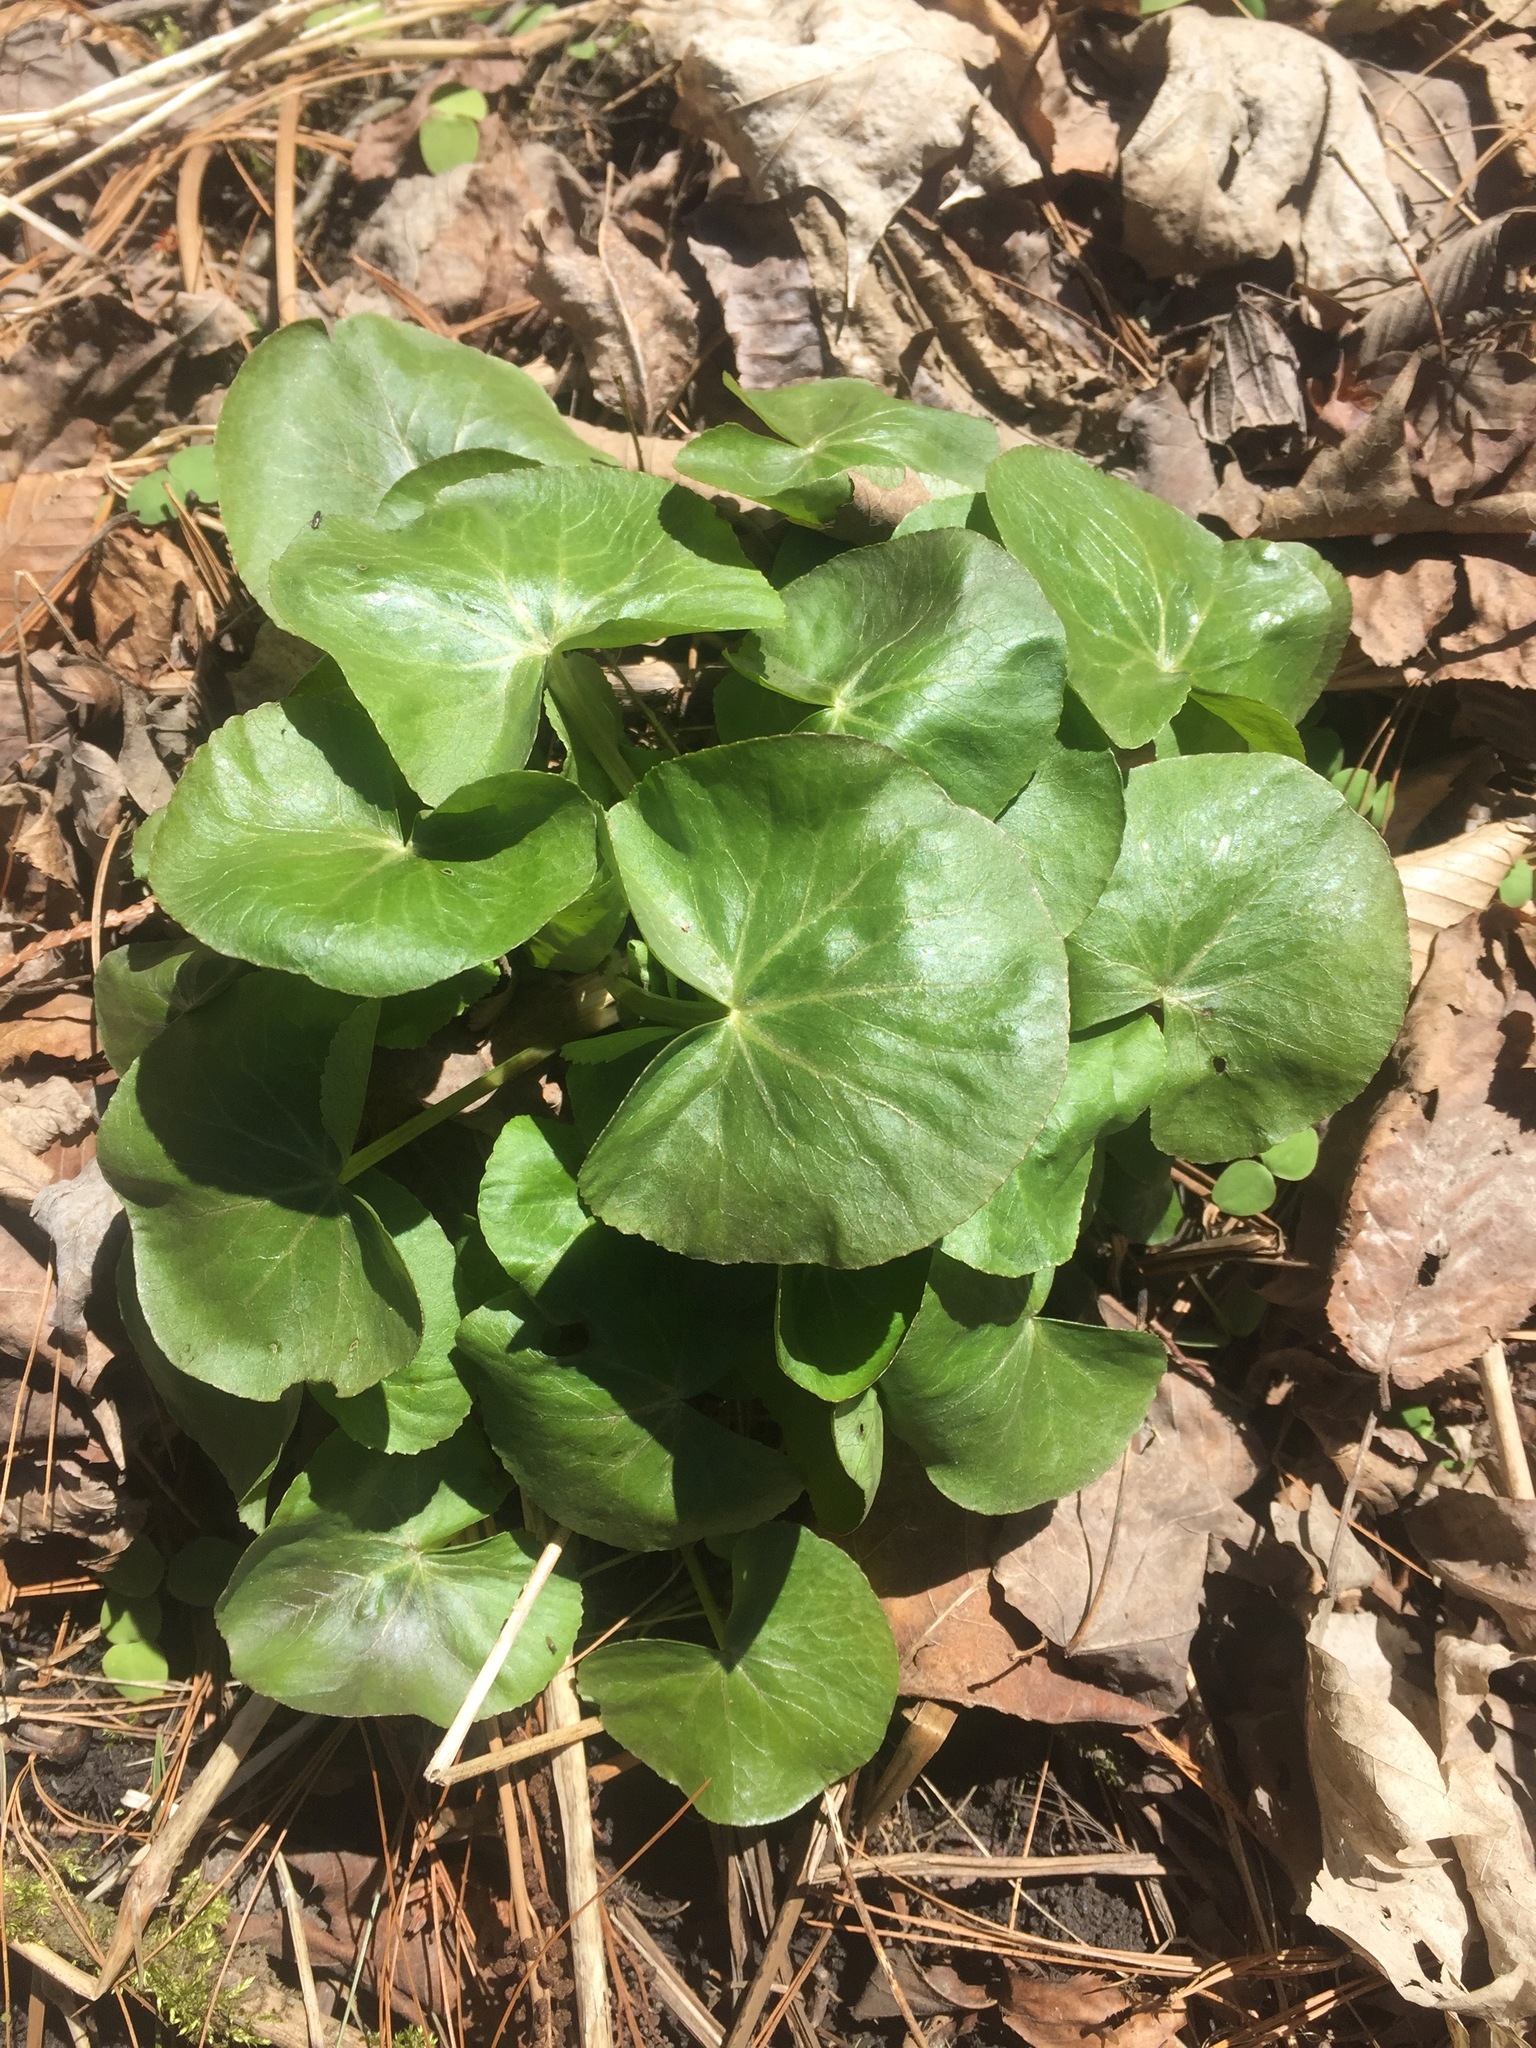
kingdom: Plantae
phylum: Tracheophyta
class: Magnoliopsida
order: Ranunculales
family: Ranunculaceae
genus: Caltha
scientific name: Caltha palustris
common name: Marsh marigold
